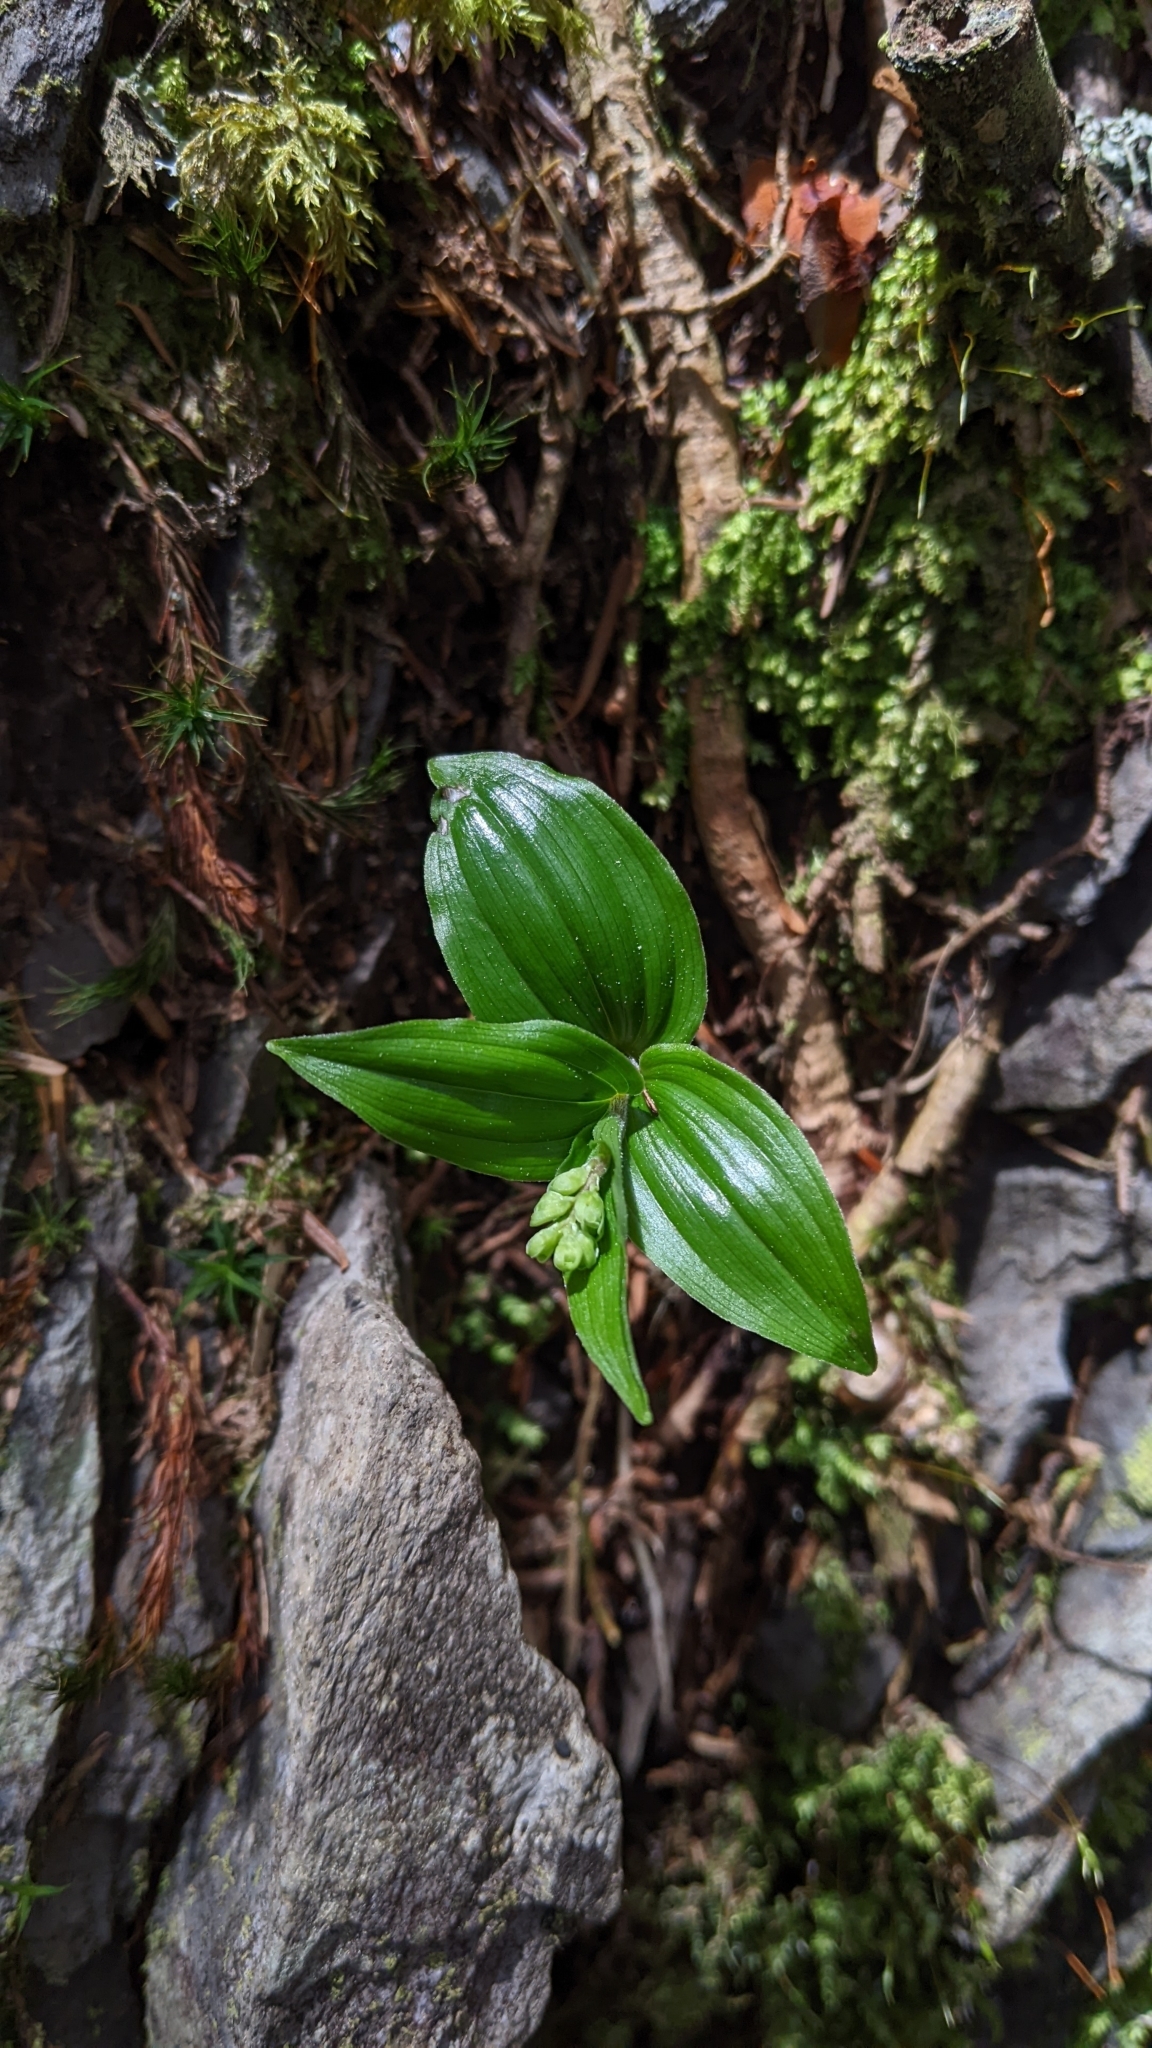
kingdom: Plantae
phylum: Tracheophyta
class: Liliopsida
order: Asparagales
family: Asparagaceae
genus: Maianthemum
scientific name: Maianthemum formosanum
